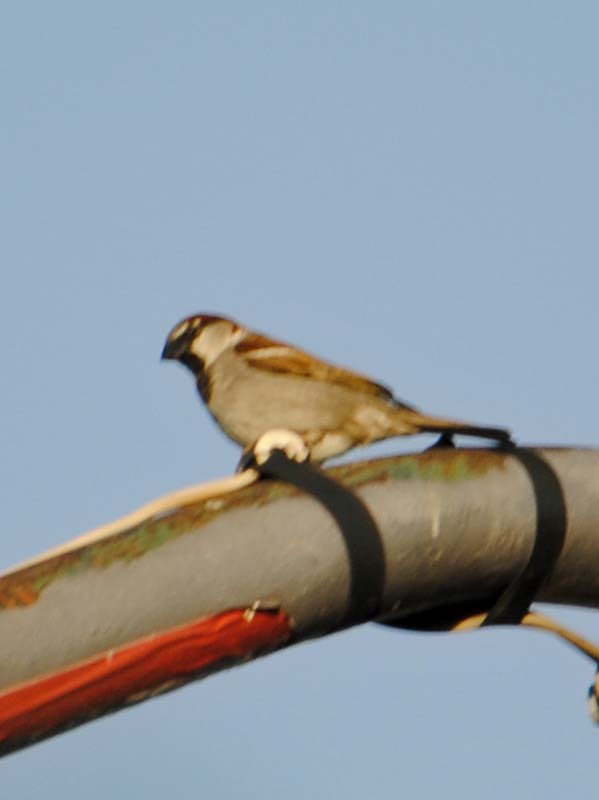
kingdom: Animalia
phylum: Chordata
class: Aves
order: Passeriformes
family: Passeridae
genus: Passer
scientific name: Passer domesticus
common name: House sparrow
